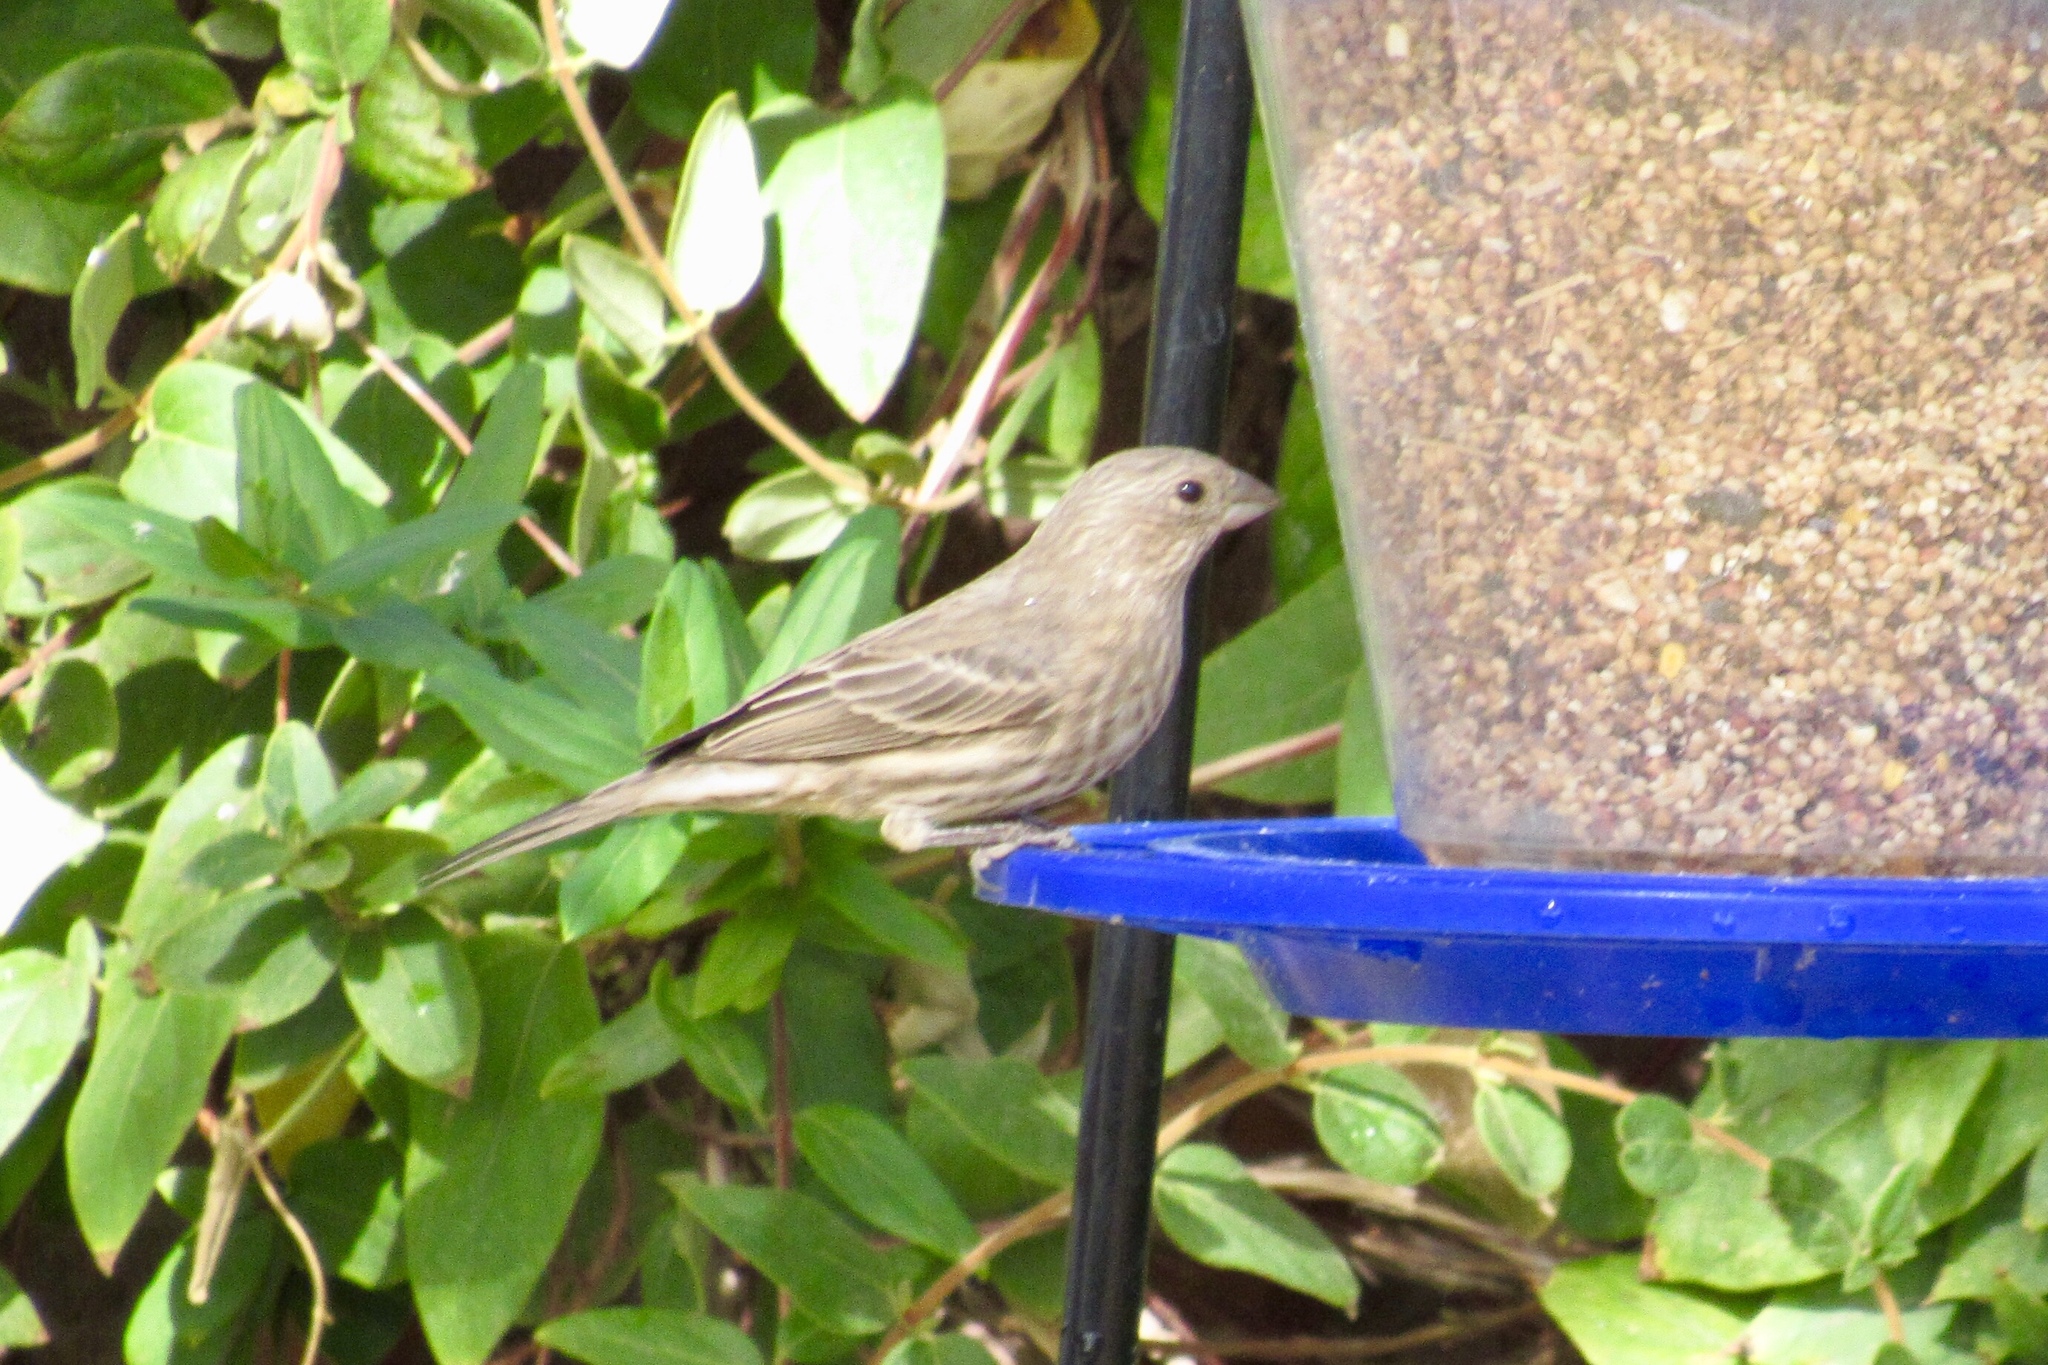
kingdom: Animalia
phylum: Chordata
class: Aves
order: Passeriformes
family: Fringillidae
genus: Haemorhous
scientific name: Haemorhous mexicanus
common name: House finch
